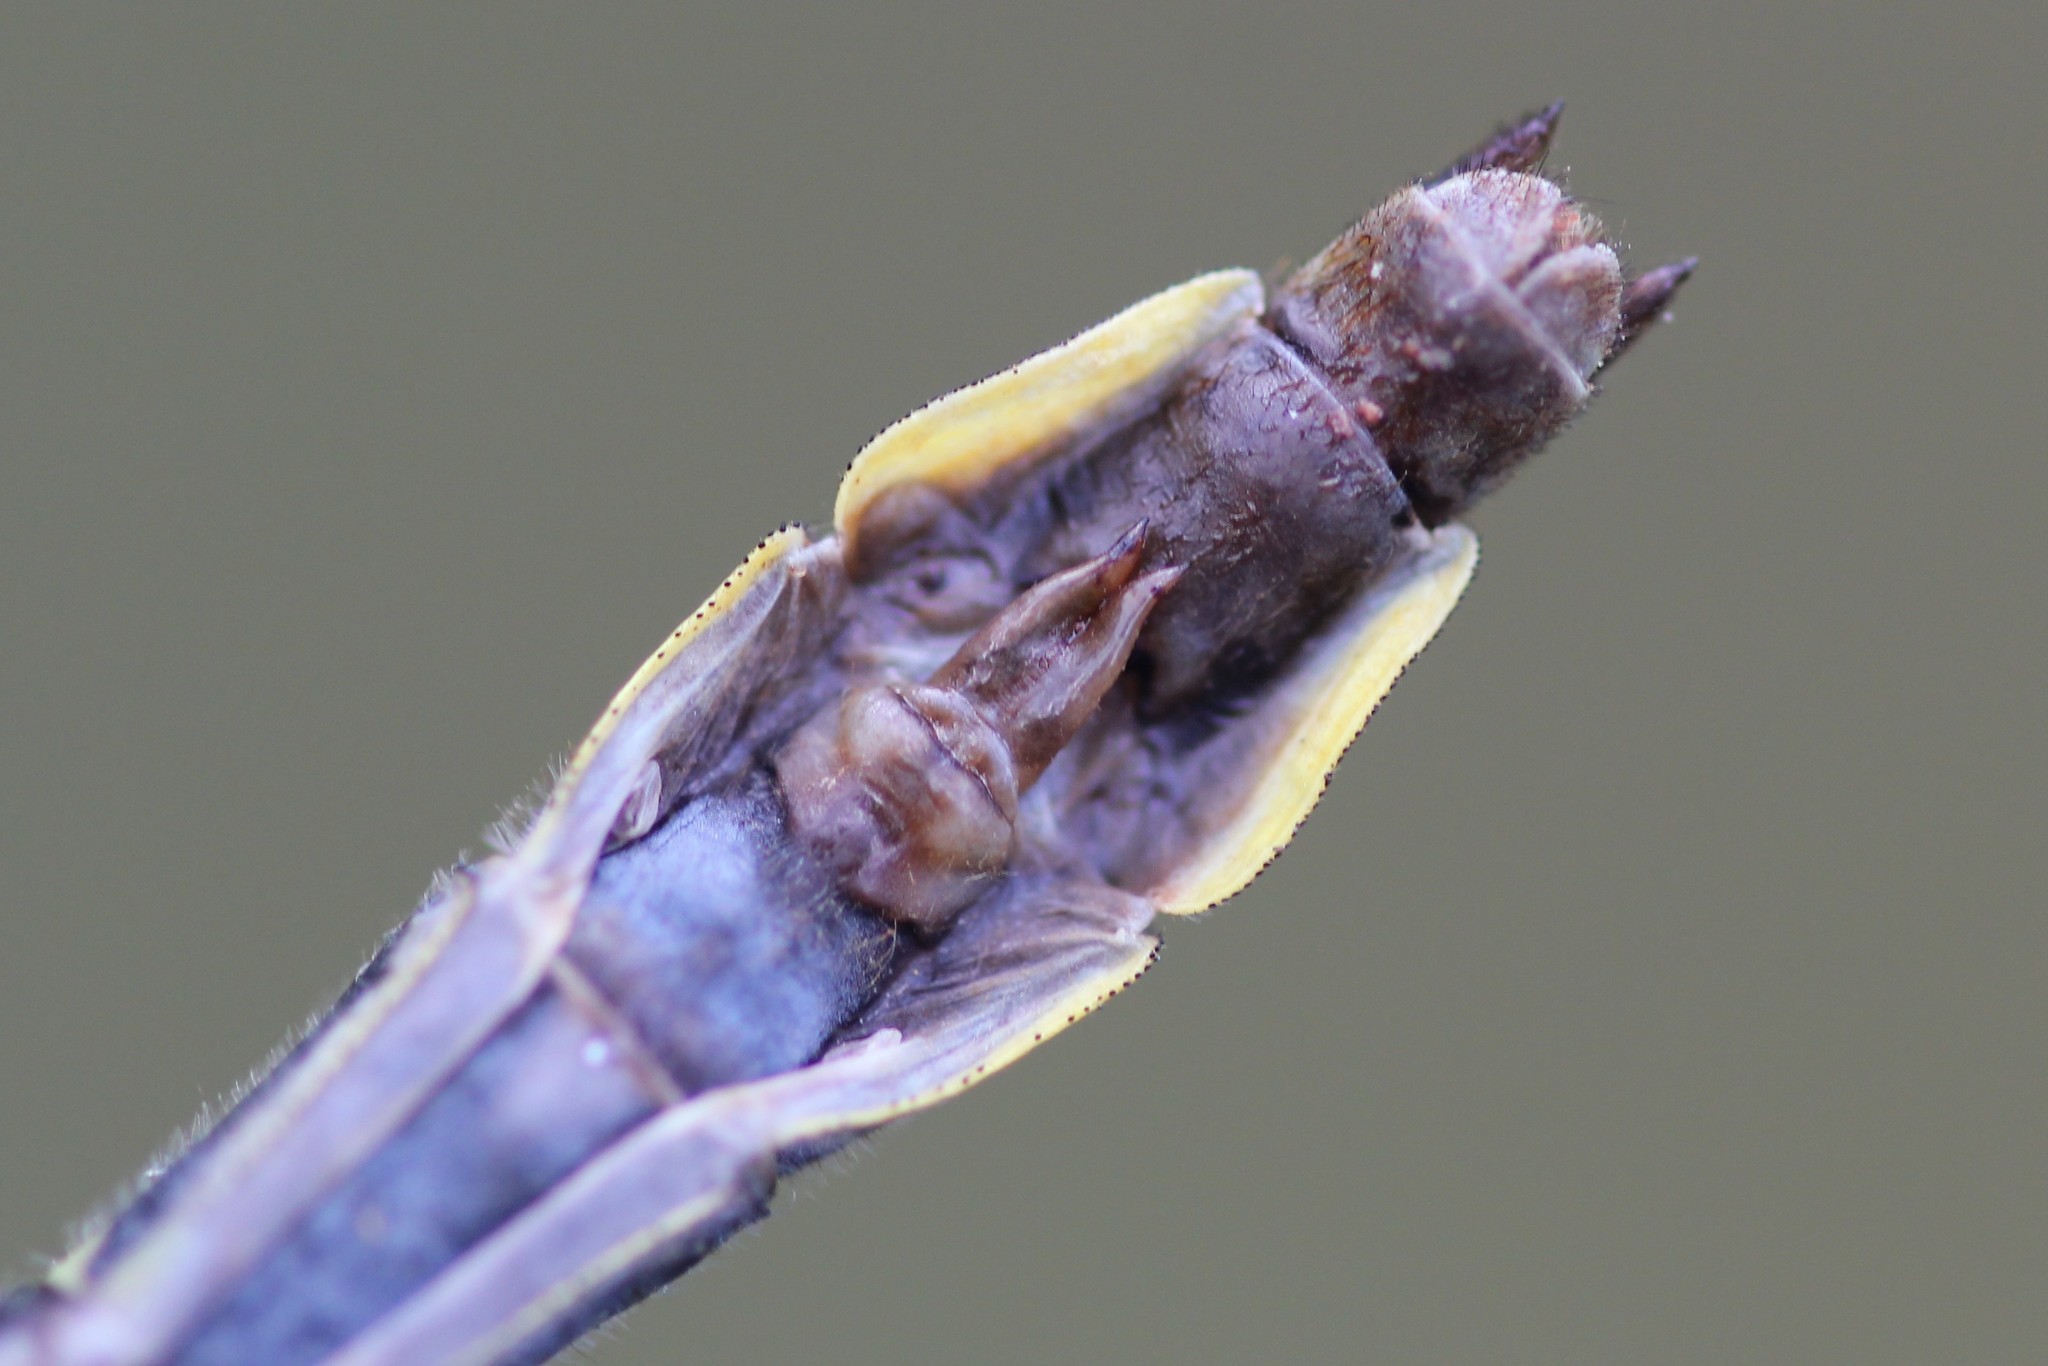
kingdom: Animalia
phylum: Arthropoda
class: Insecta
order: Odonata
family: Gomphidae
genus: Phanogomphus
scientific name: Phanogomphus borealis
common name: Beaverpond clubtail
